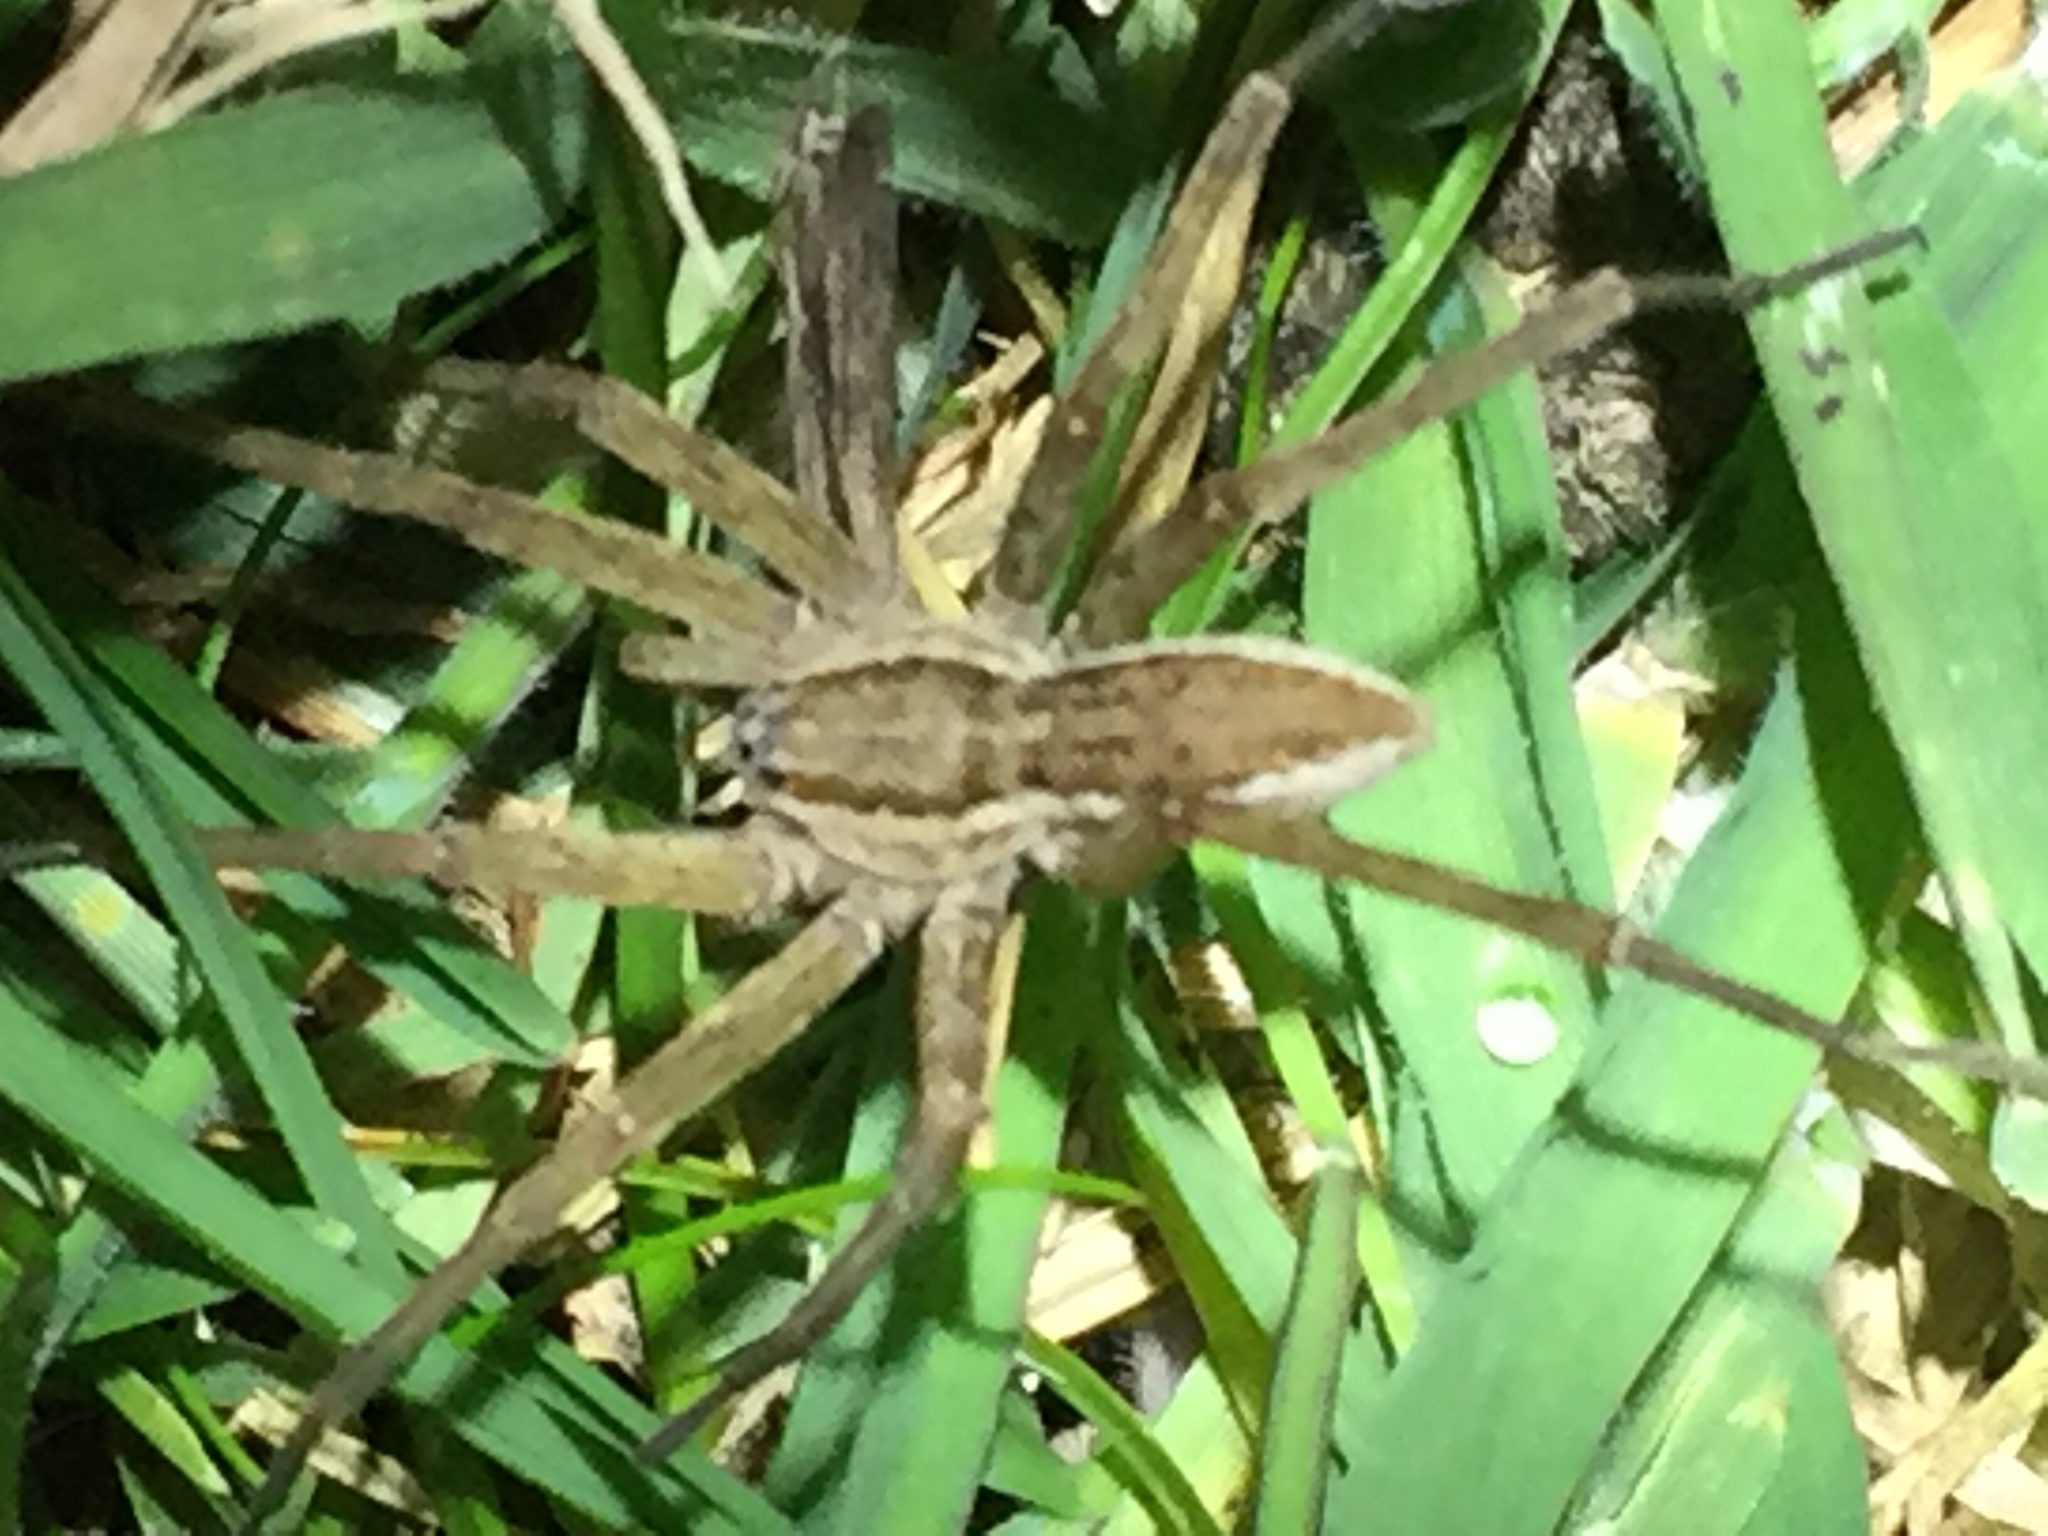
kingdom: Animalia
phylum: Arthropoda
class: Arachnida
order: Araneae
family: Pisauridae
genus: Dolomedes
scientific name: Dolomedes minor
